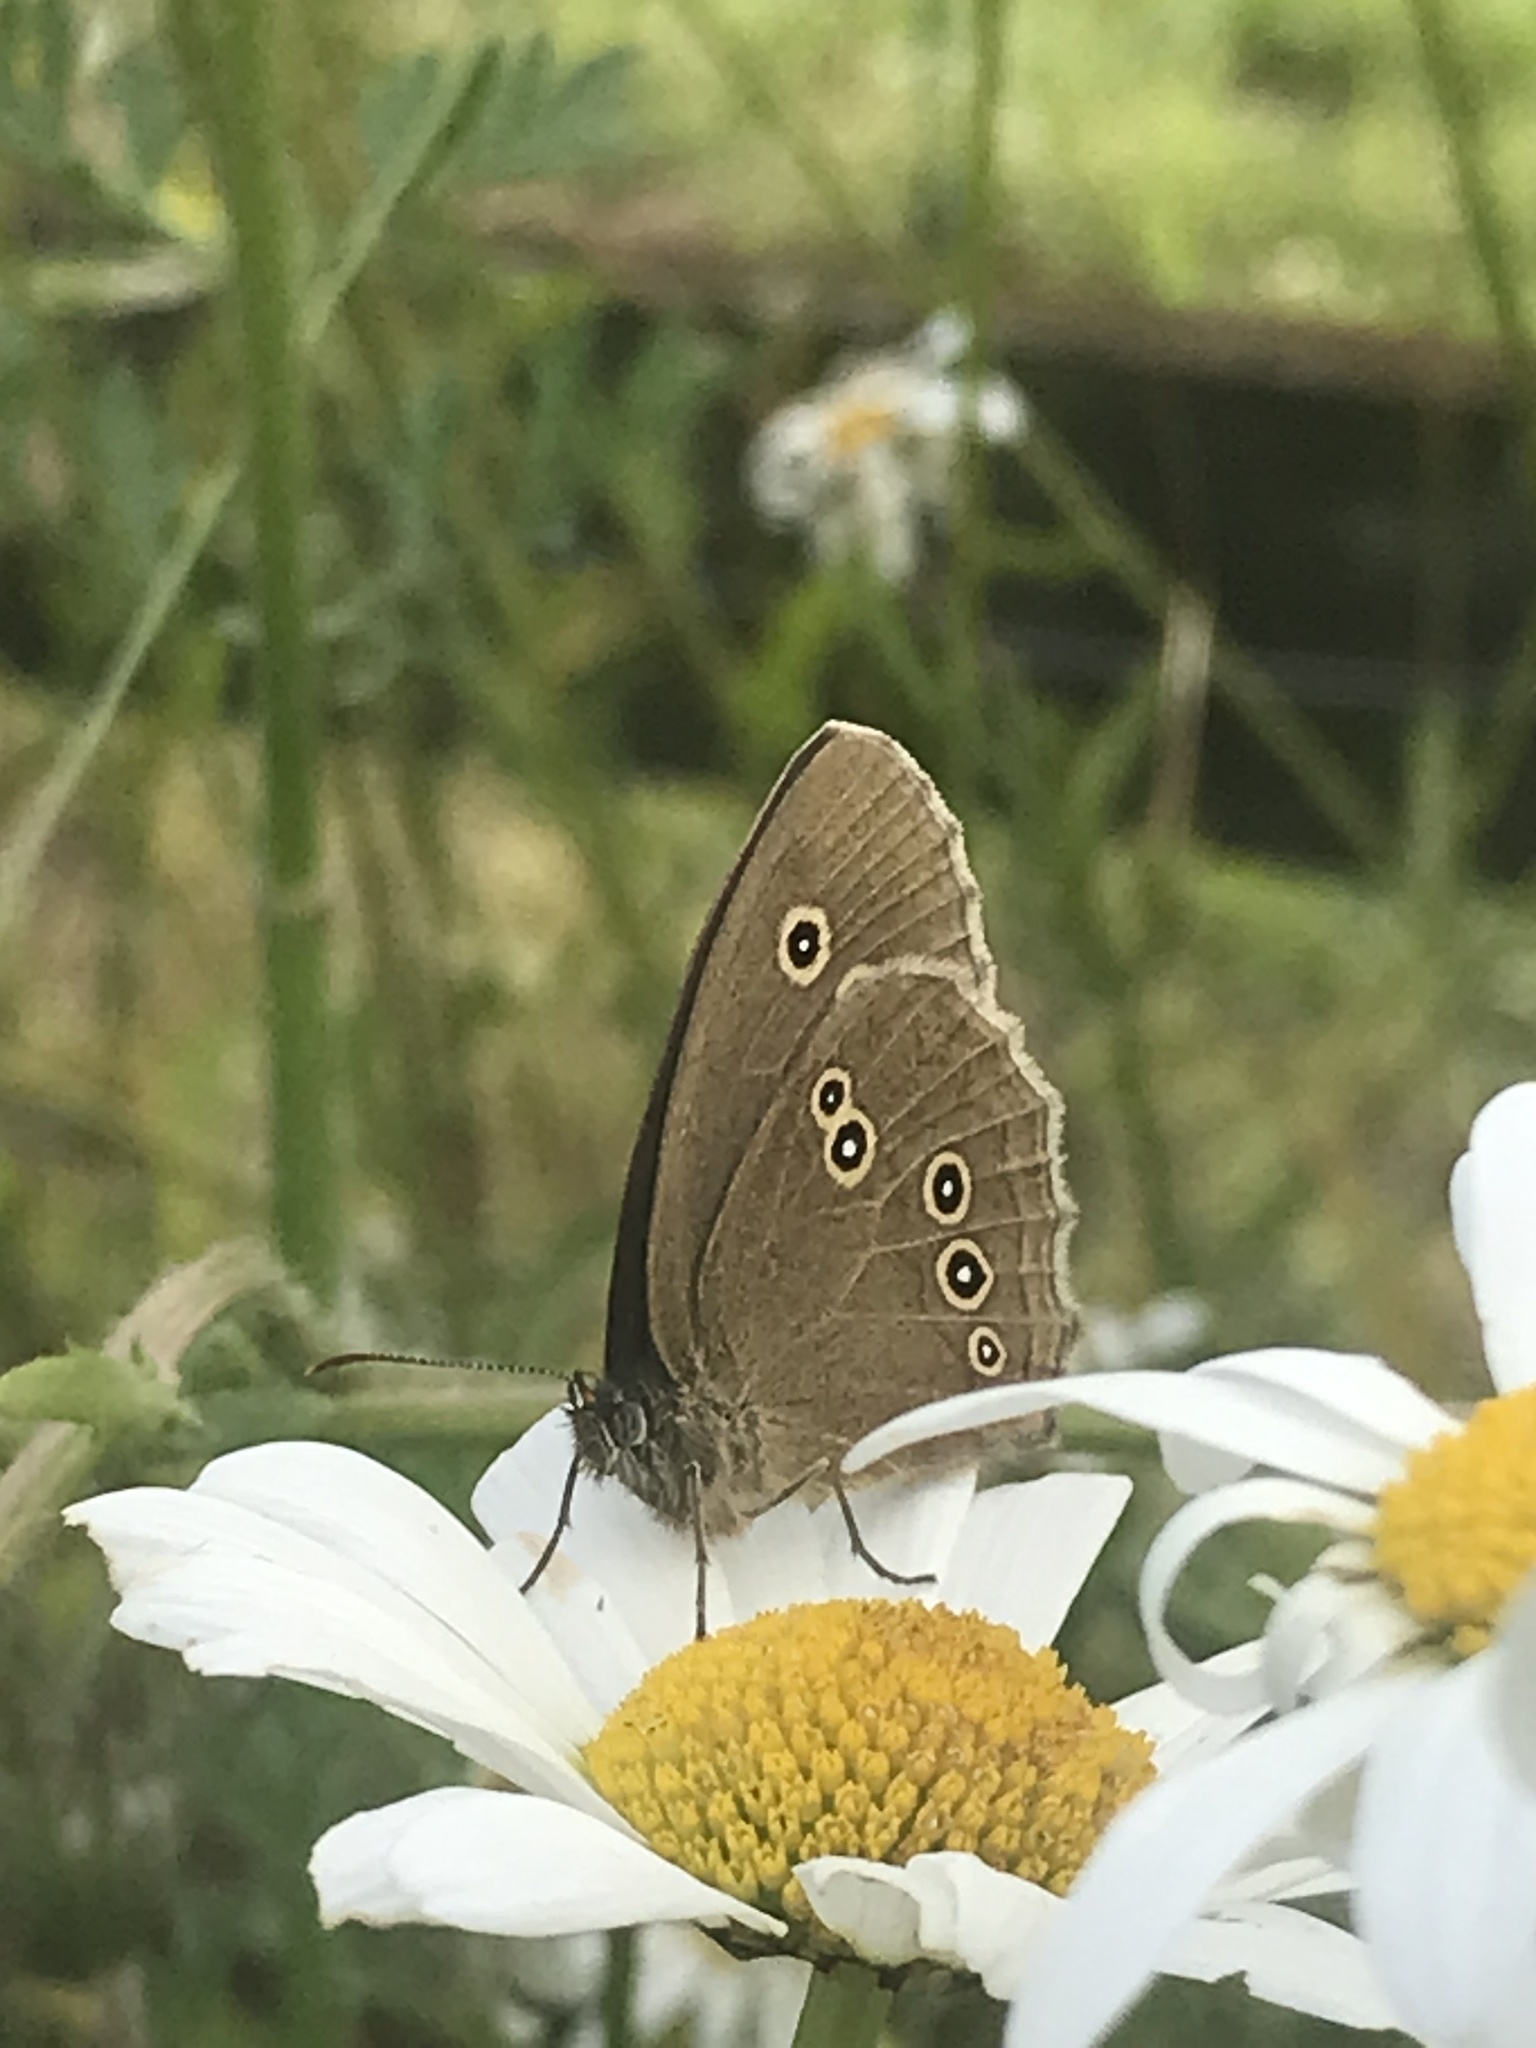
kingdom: Animalia
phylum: Arthropoda
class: Insecta
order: Lepidoptera
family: Nymphalidae
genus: Aphantopus
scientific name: Aphantopus hyperantus
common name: Ringlet
